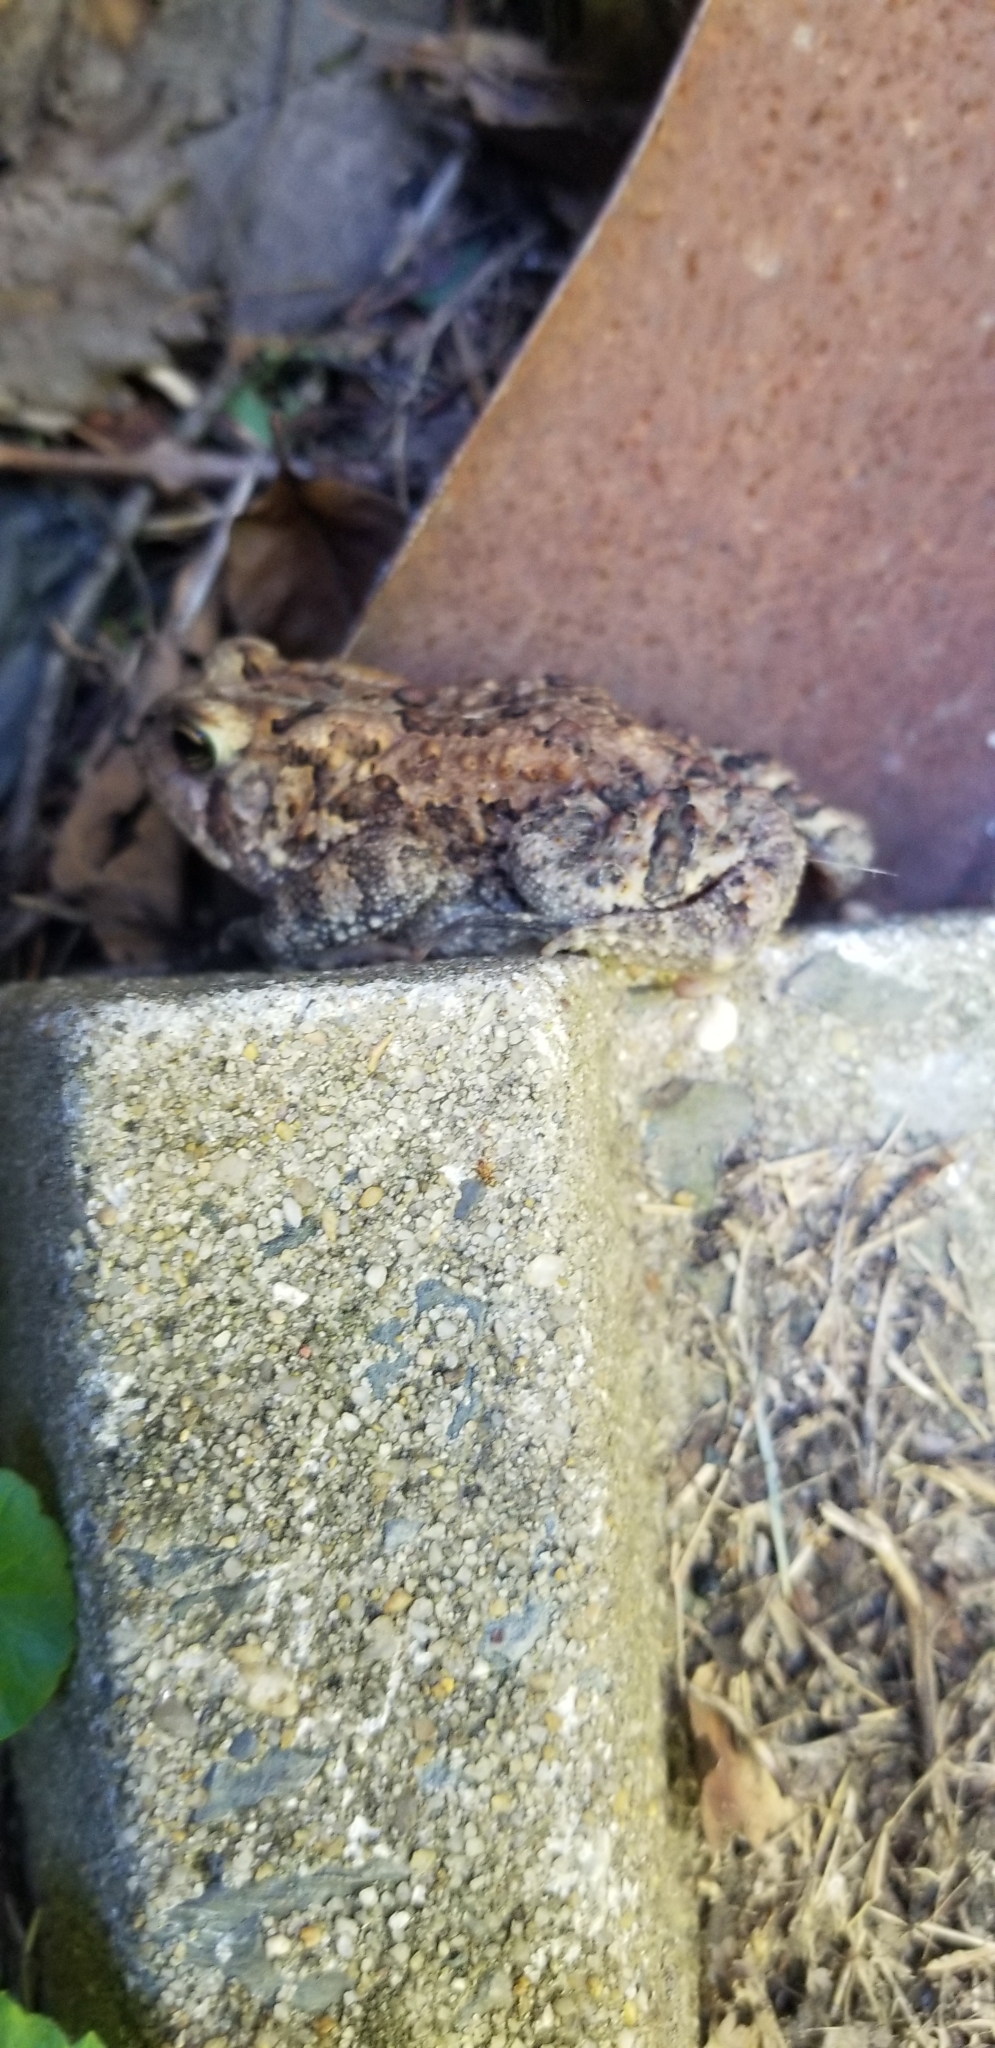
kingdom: Animalia
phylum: Chordata
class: Amphibia
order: Anura
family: Bufonidae
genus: Anaxyrus
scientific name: Anaxyrus americanus
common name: American toad
